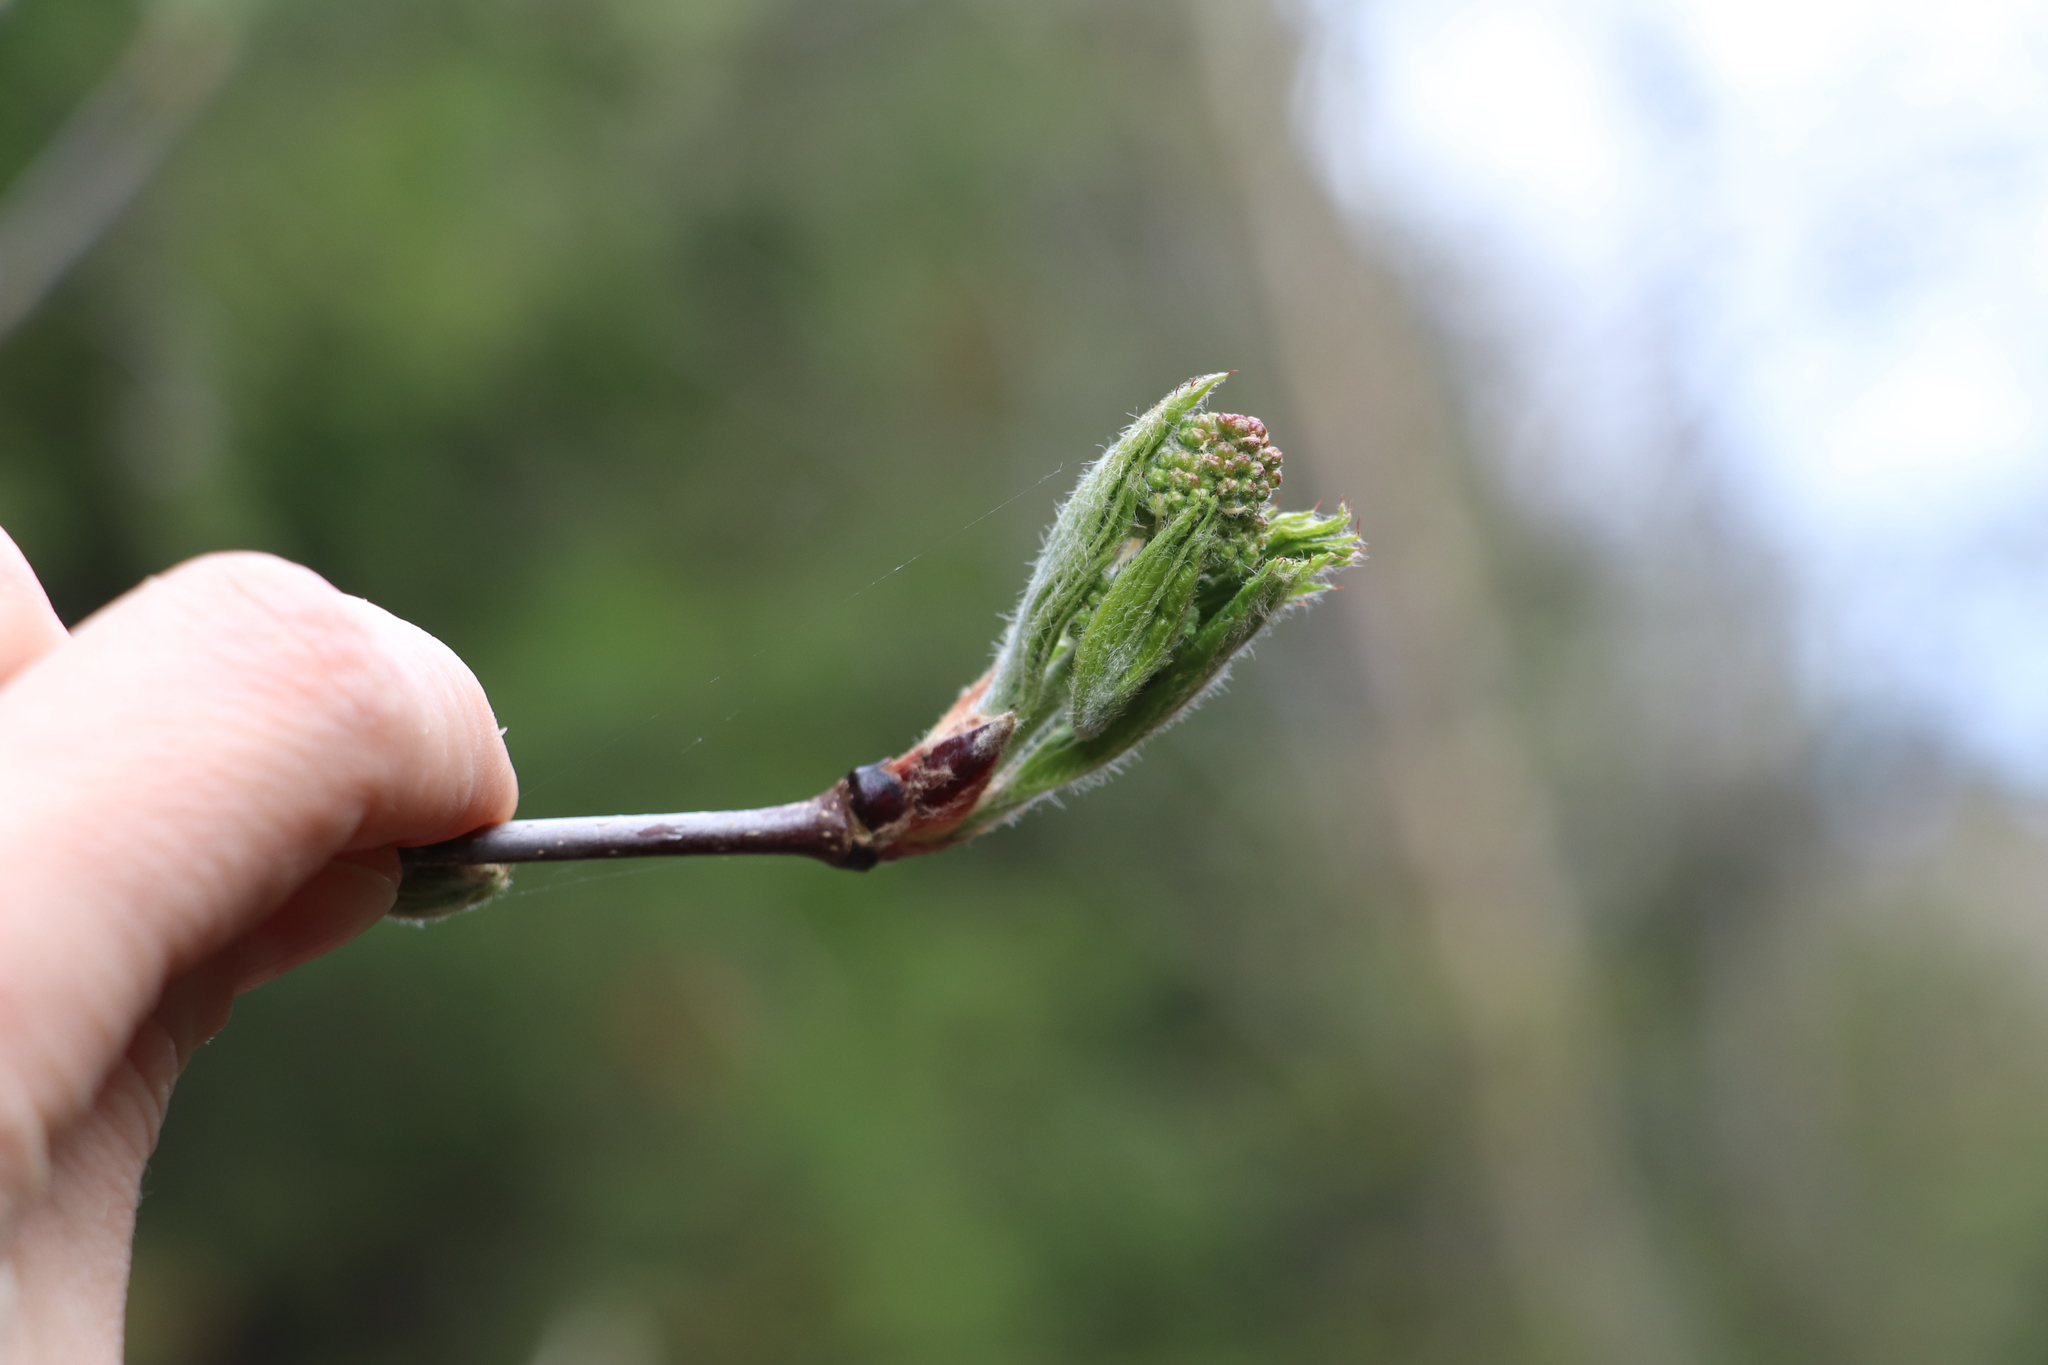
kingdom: Plantae
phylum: Tracheophyta
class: Magnoliopsida
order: Rosales
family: Rosaceae
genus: Sorbus
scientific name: Sorbus aucuparia
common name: Rowan
